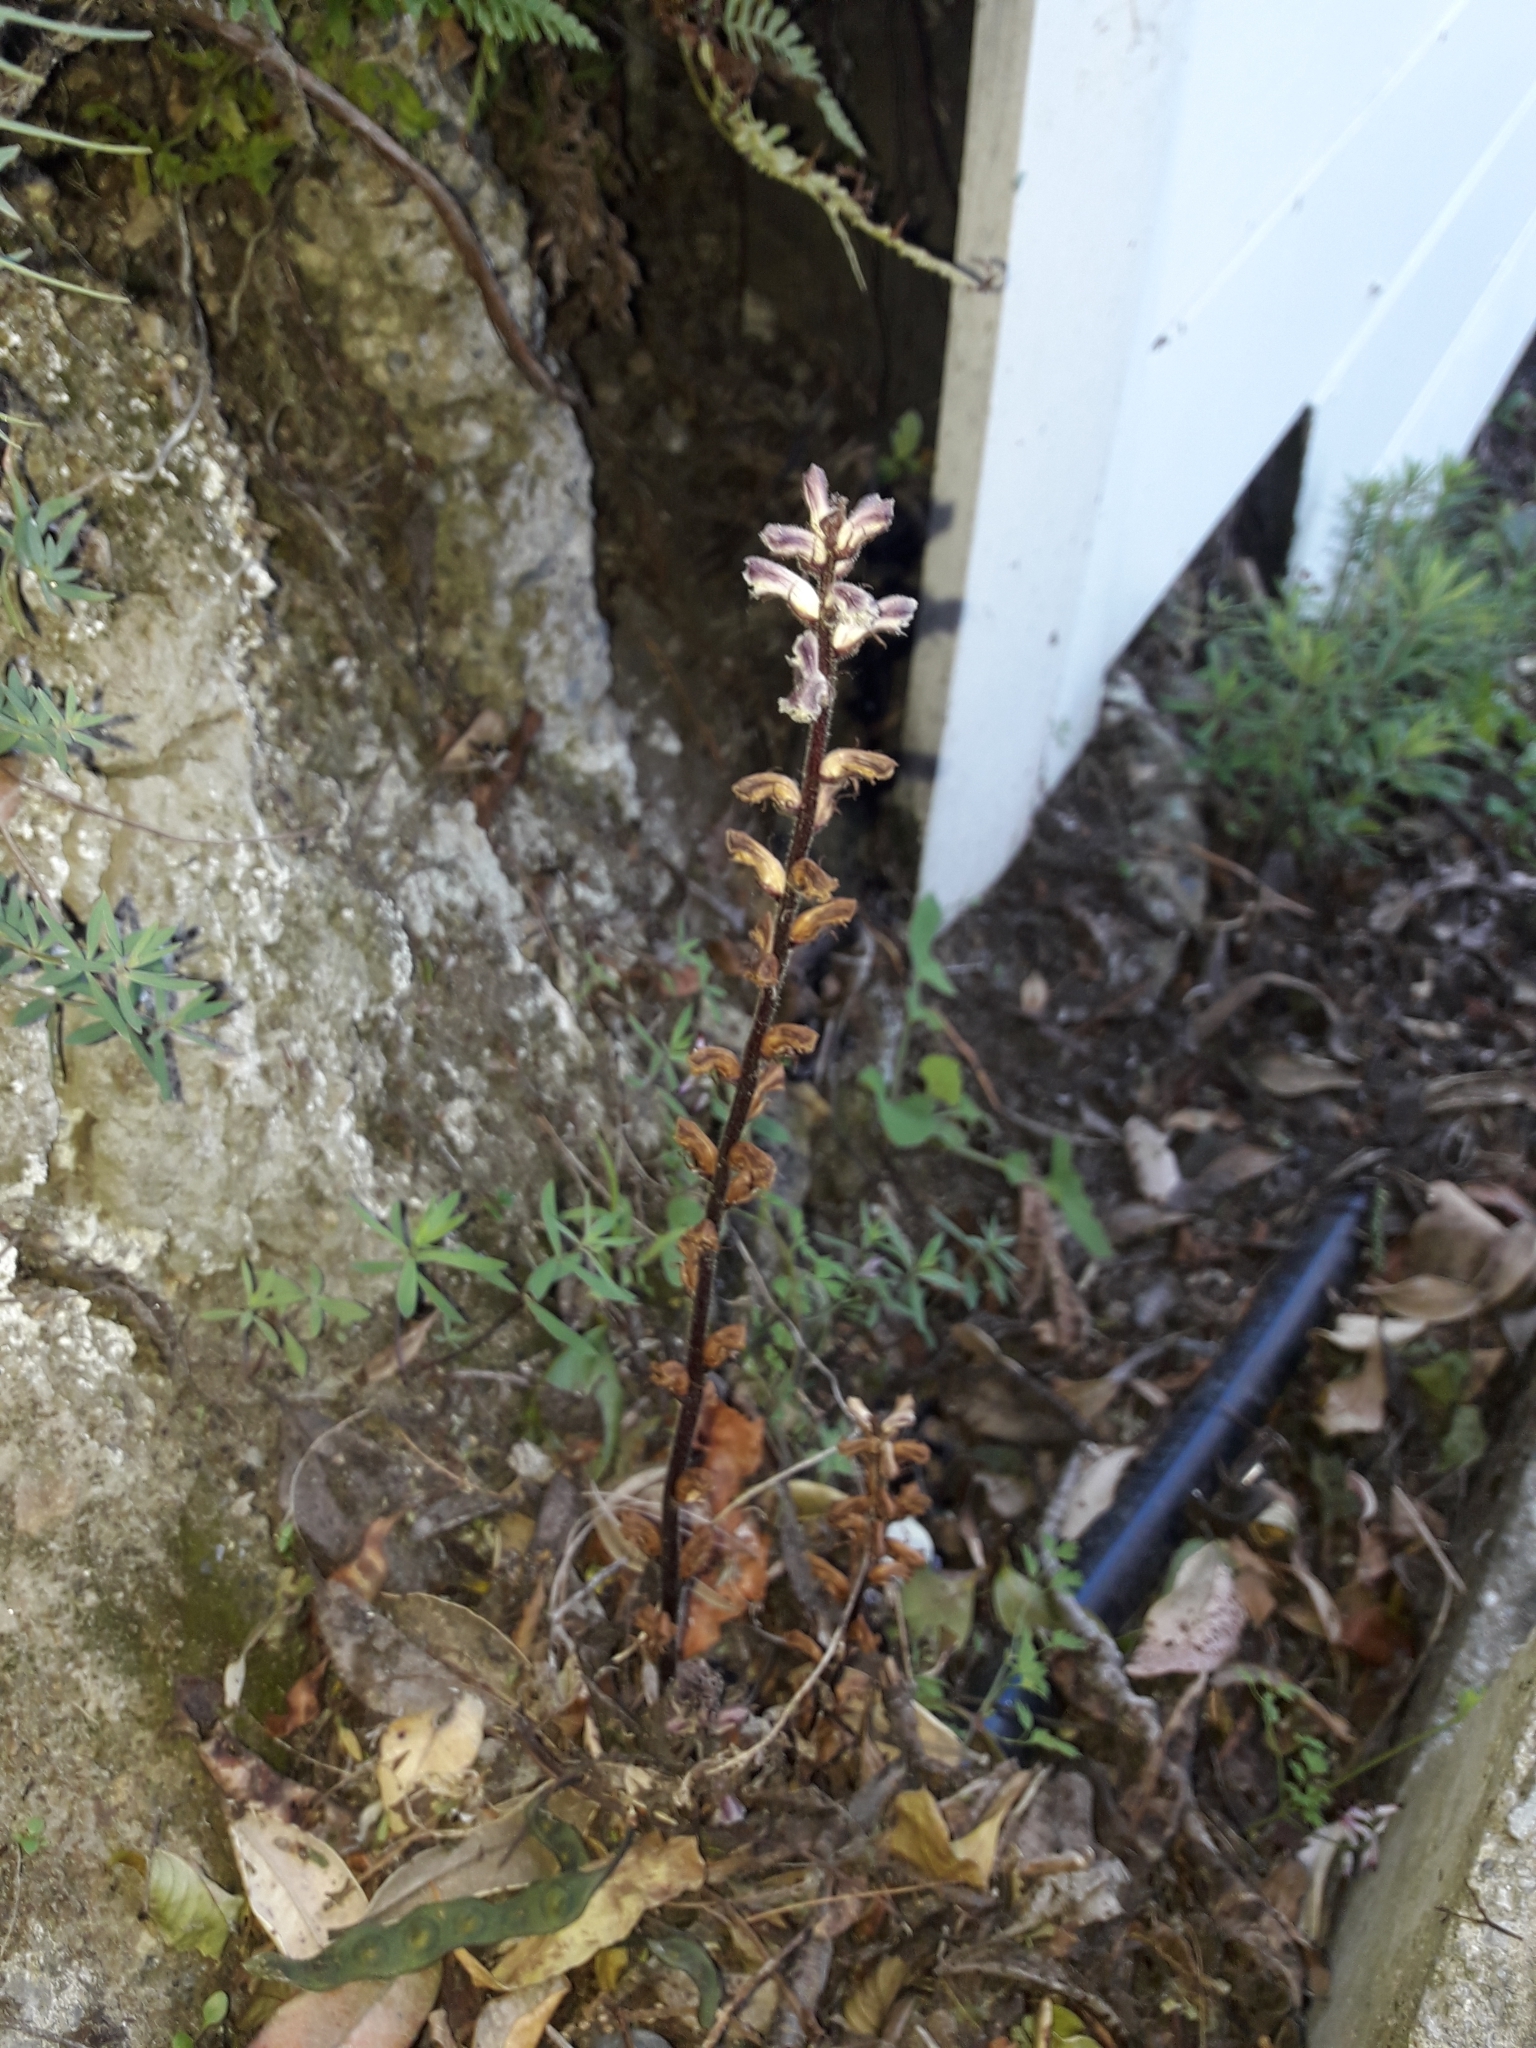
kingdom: Plantae
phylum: Tracheophyta
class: Magnoliopsida
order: Lamiales
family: Orobanchaceae
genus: Orobanche
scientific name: Orobanche minor
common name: Common broomrape
